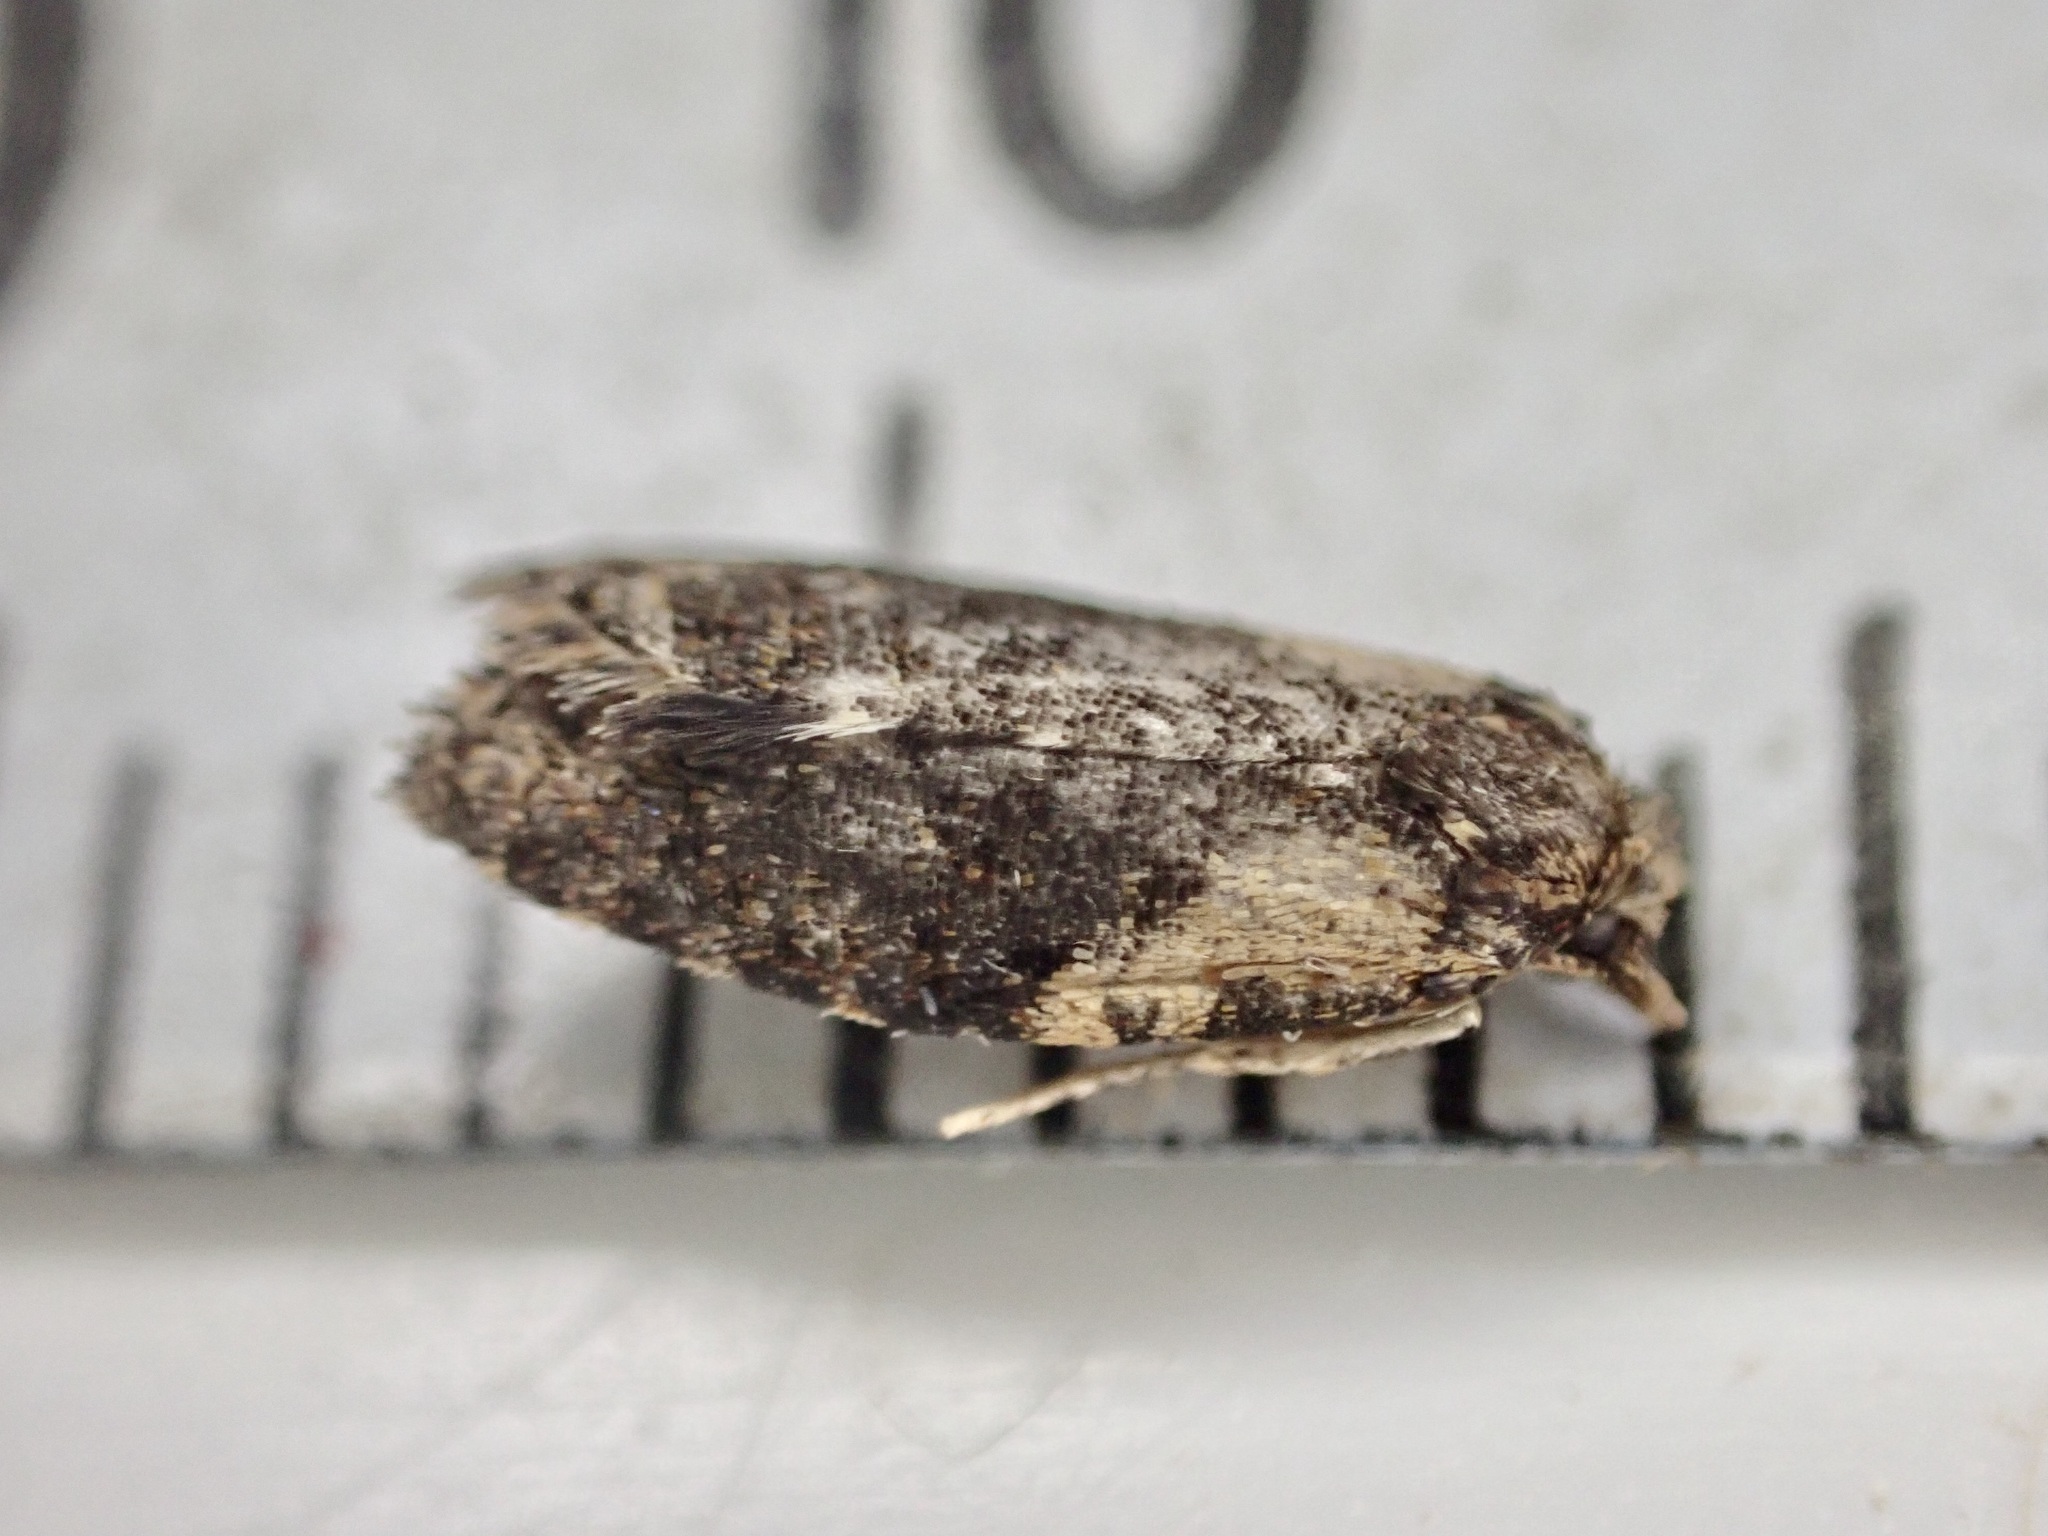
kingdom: Animalia
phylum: Arthropoda
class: Insecta
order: Lepidoptera
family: Tortricidae
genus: Capua
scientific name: Capua intractana
